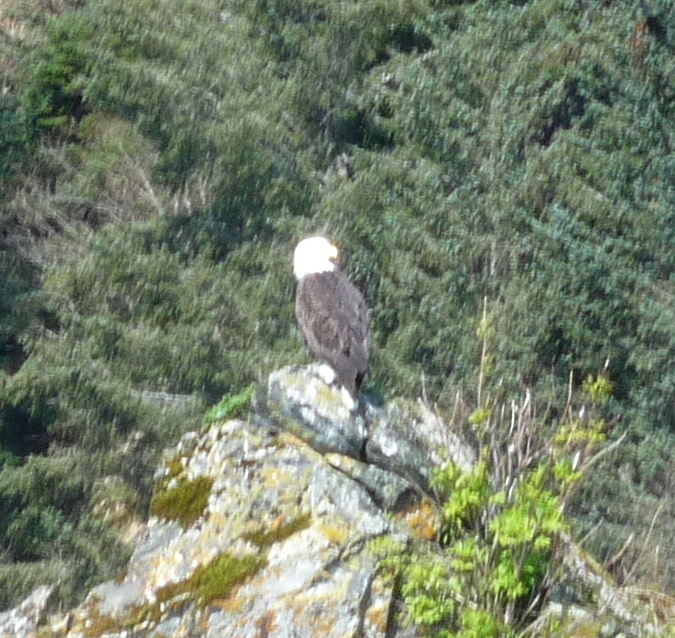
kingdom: Animalia
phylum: Chordata
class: Aves
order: Accipitriformes
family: Accipitridae
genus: Haliaeetus
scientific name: Haliaeetus leucocephalus
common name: Bald eagle
